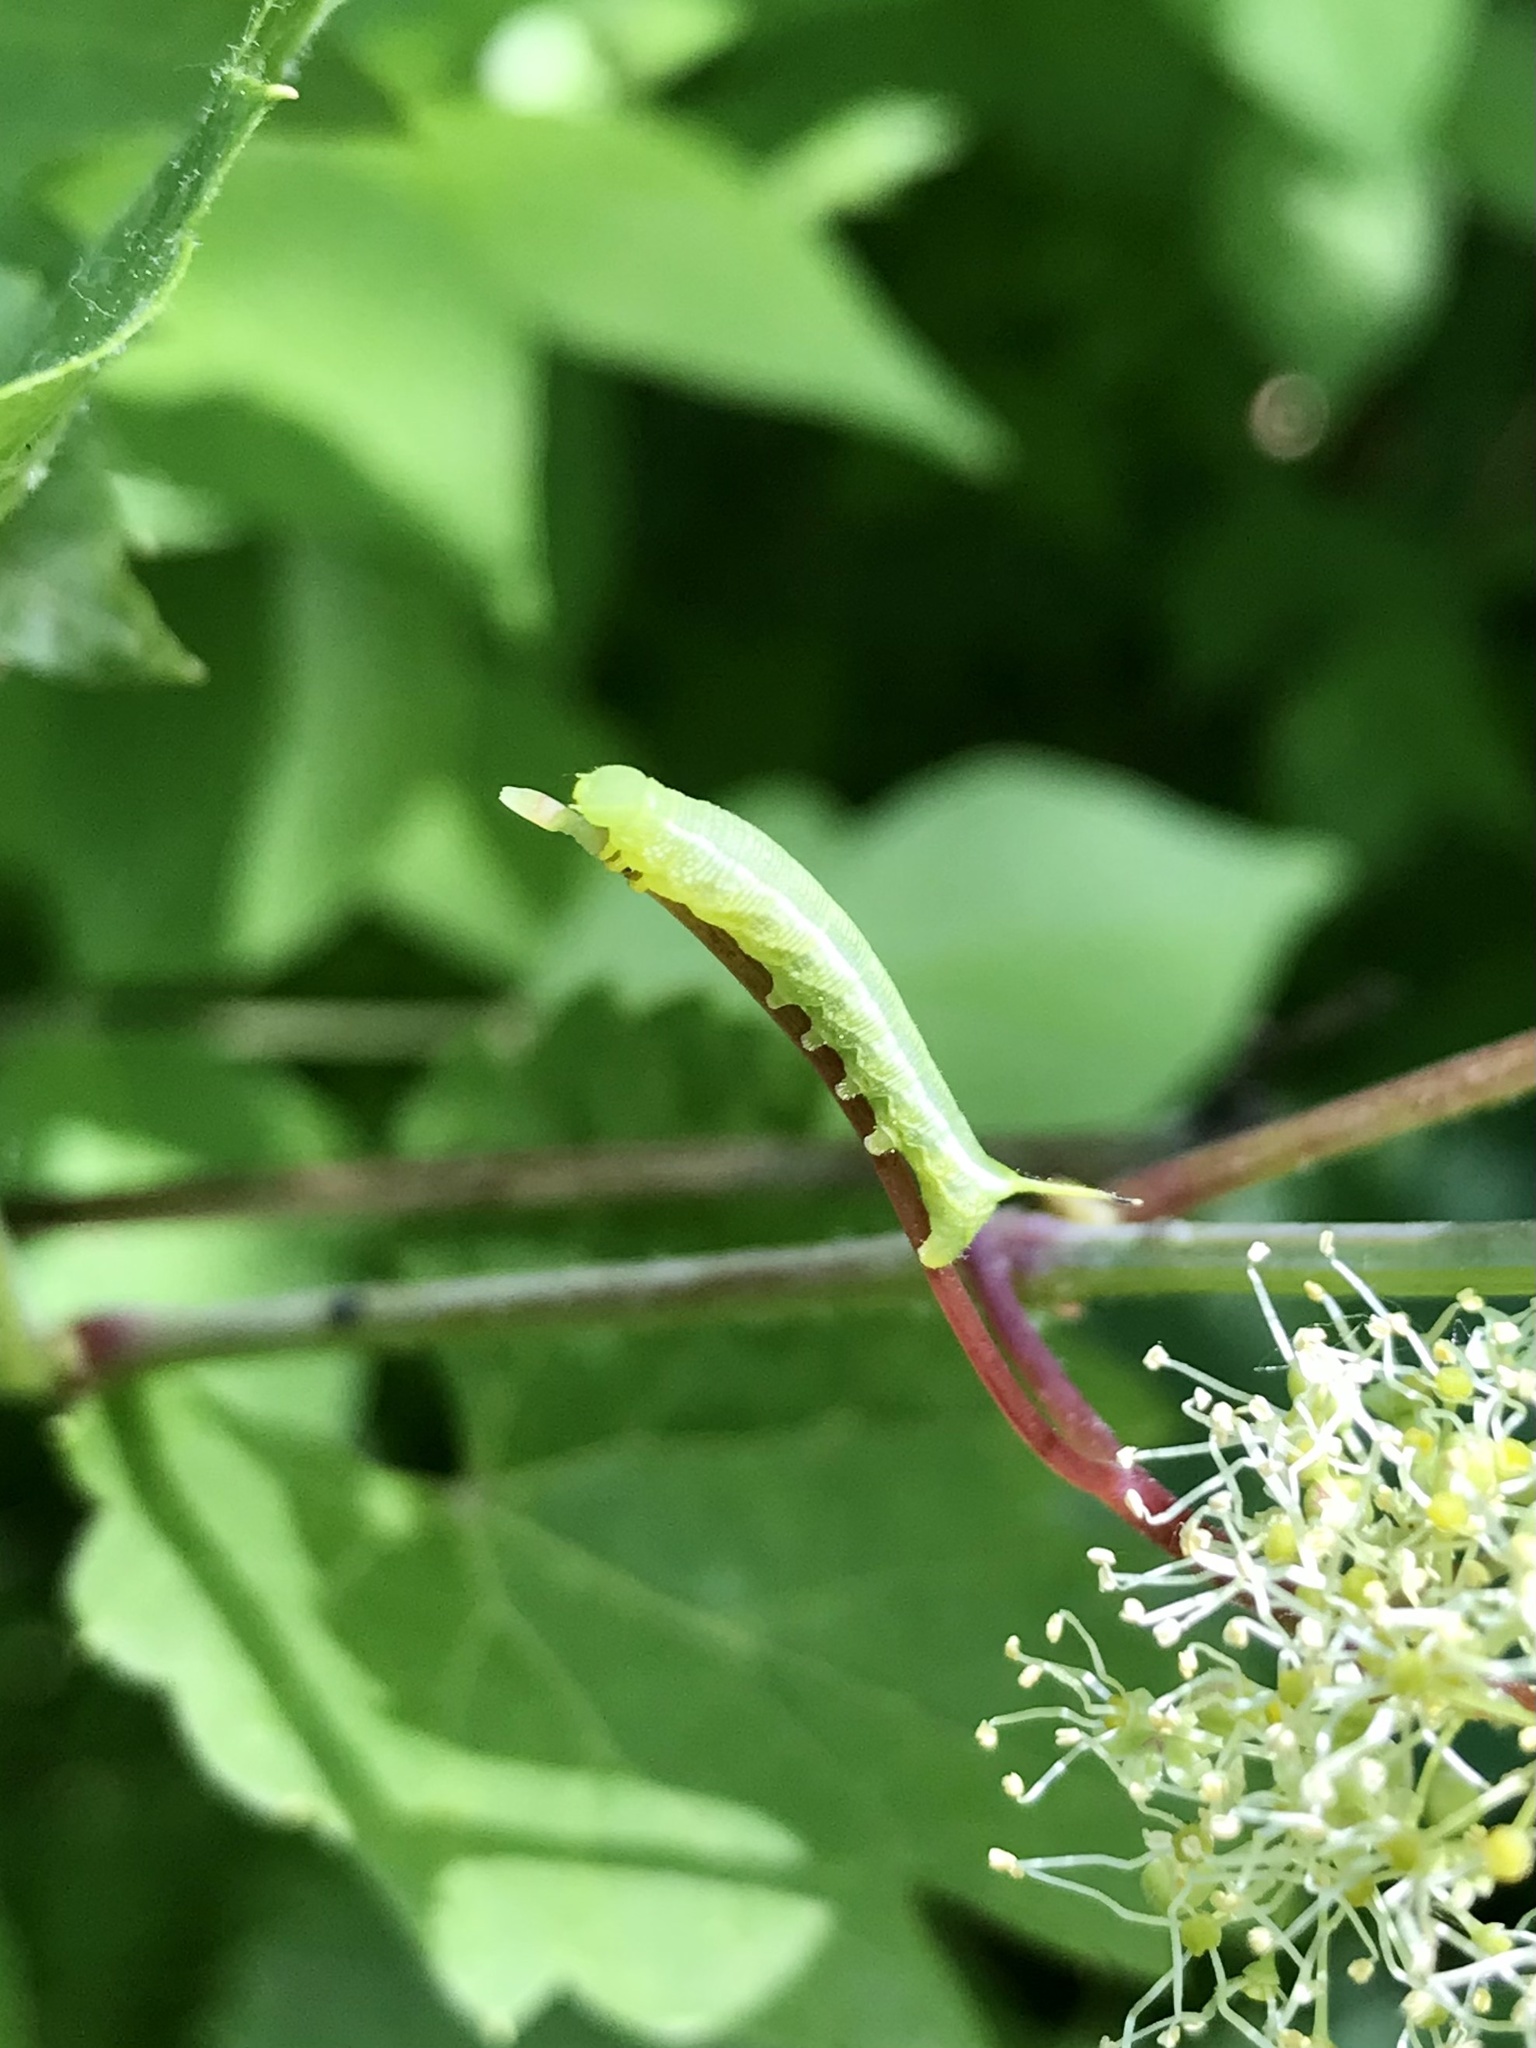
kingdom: Animalia
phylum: Arthropoda
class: Insecta
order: Lepidoptera
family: Sphingidae
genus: Deidamia
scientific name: Deidamia inscriptum
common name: Lettered sphinx
